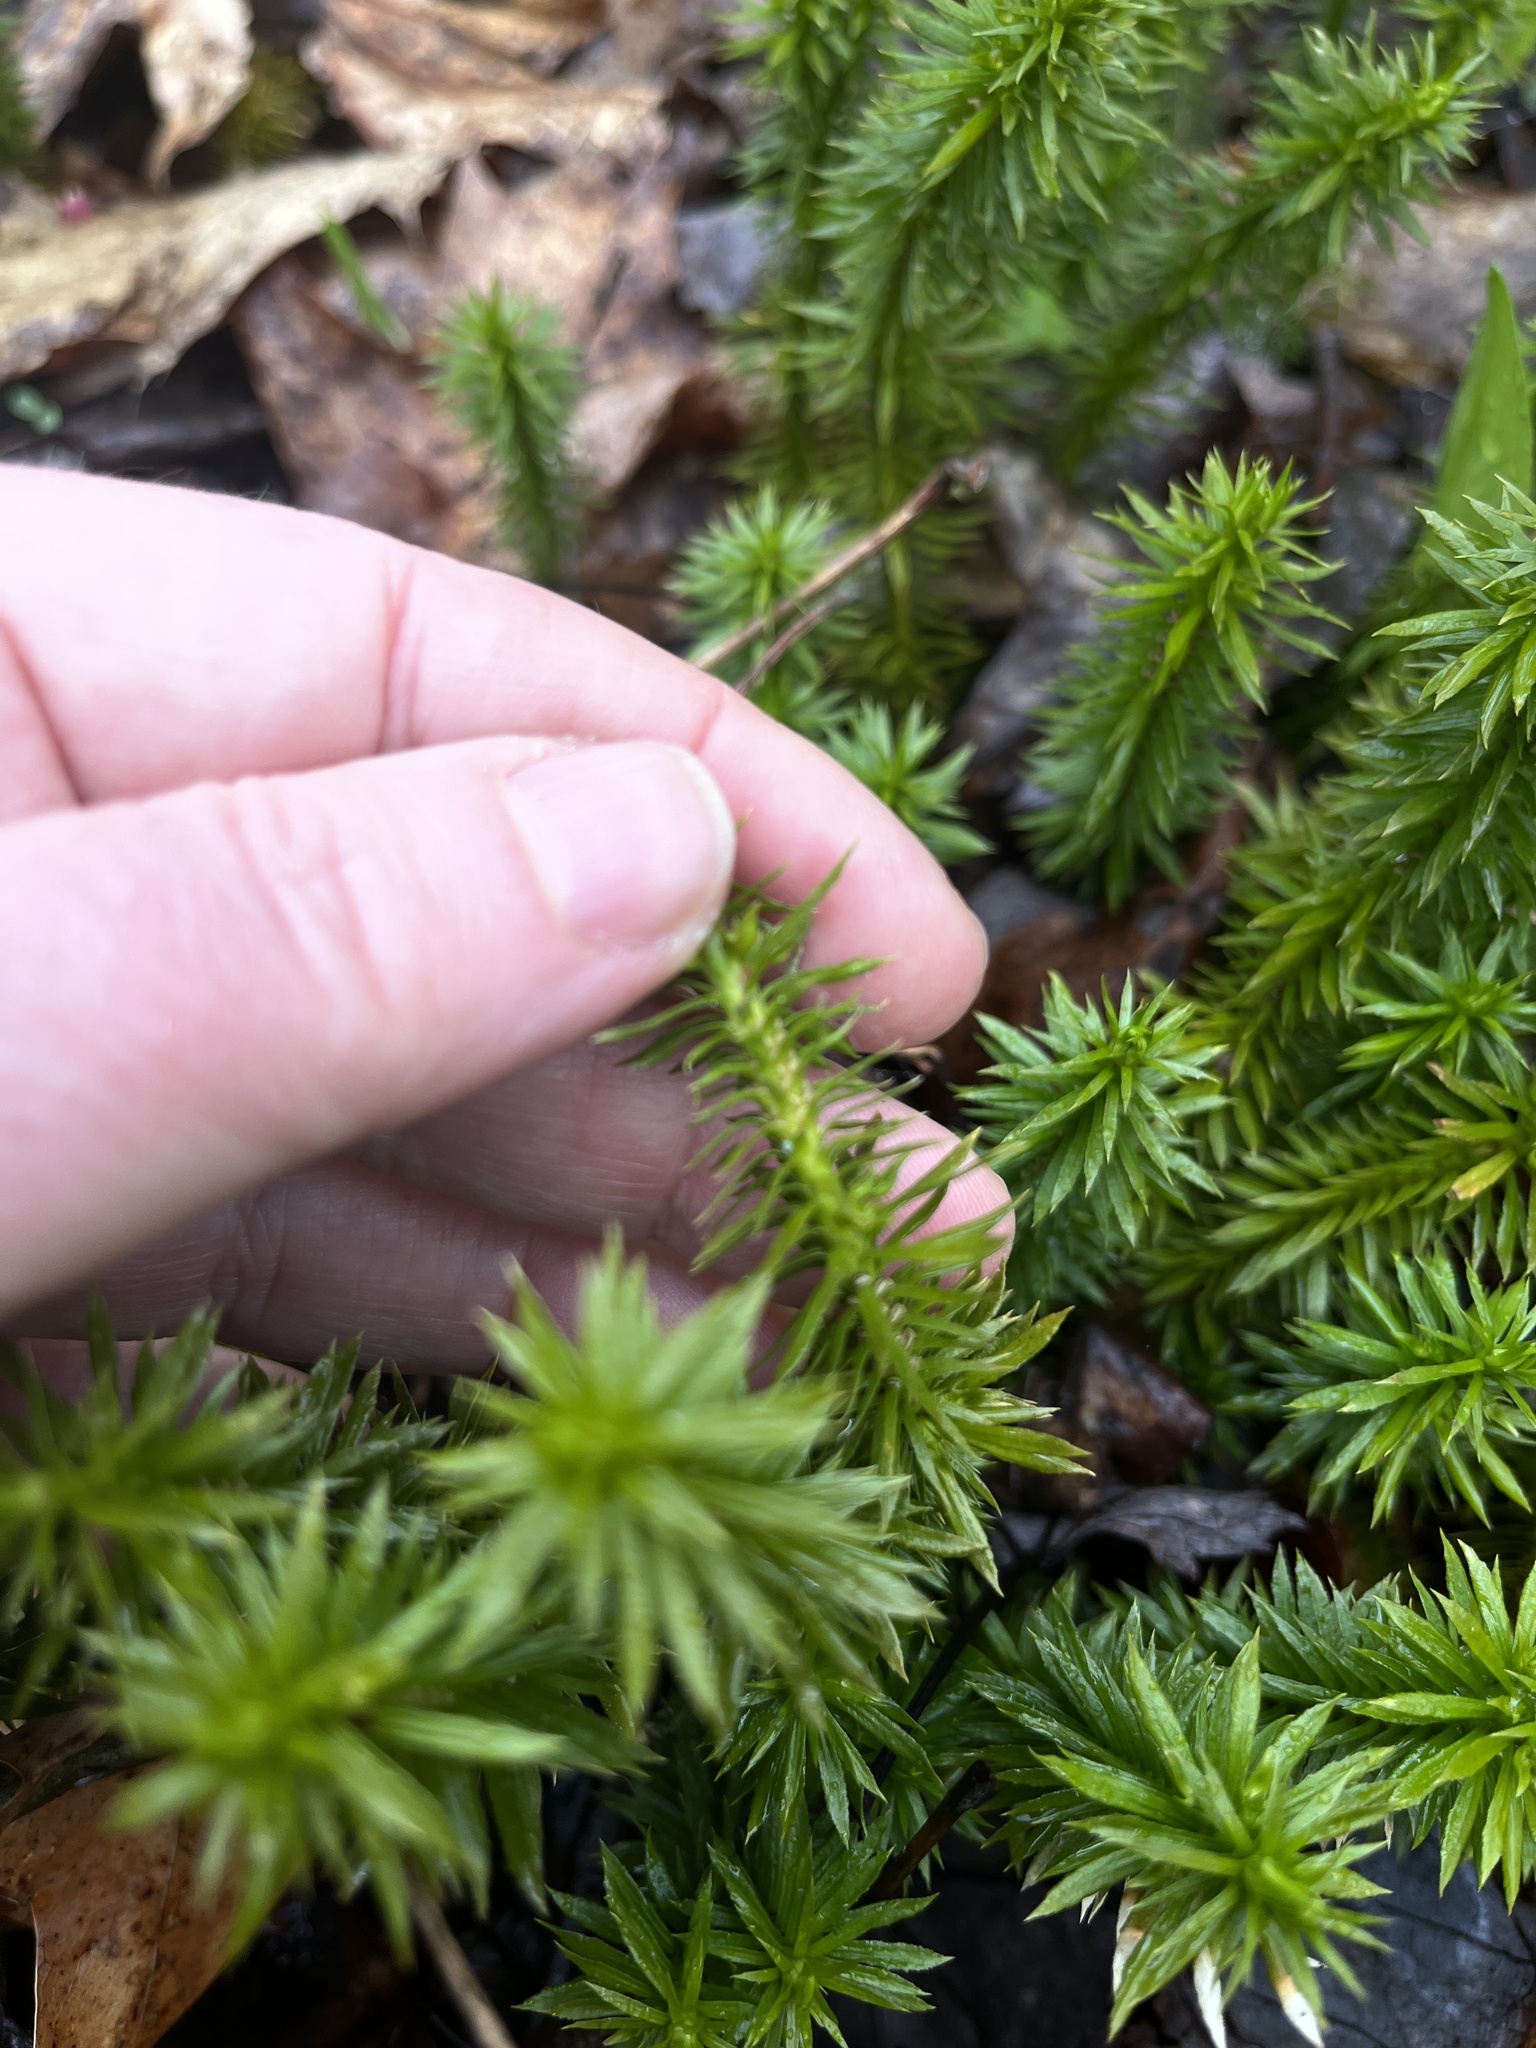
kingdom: Plantae
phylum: Tracheophyta
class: Lycopodiopsida
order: Lycopodiales
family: Lycopodiaceae
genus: Huperzia
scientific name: Huperzia lucidula
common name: Shining clubmoss
